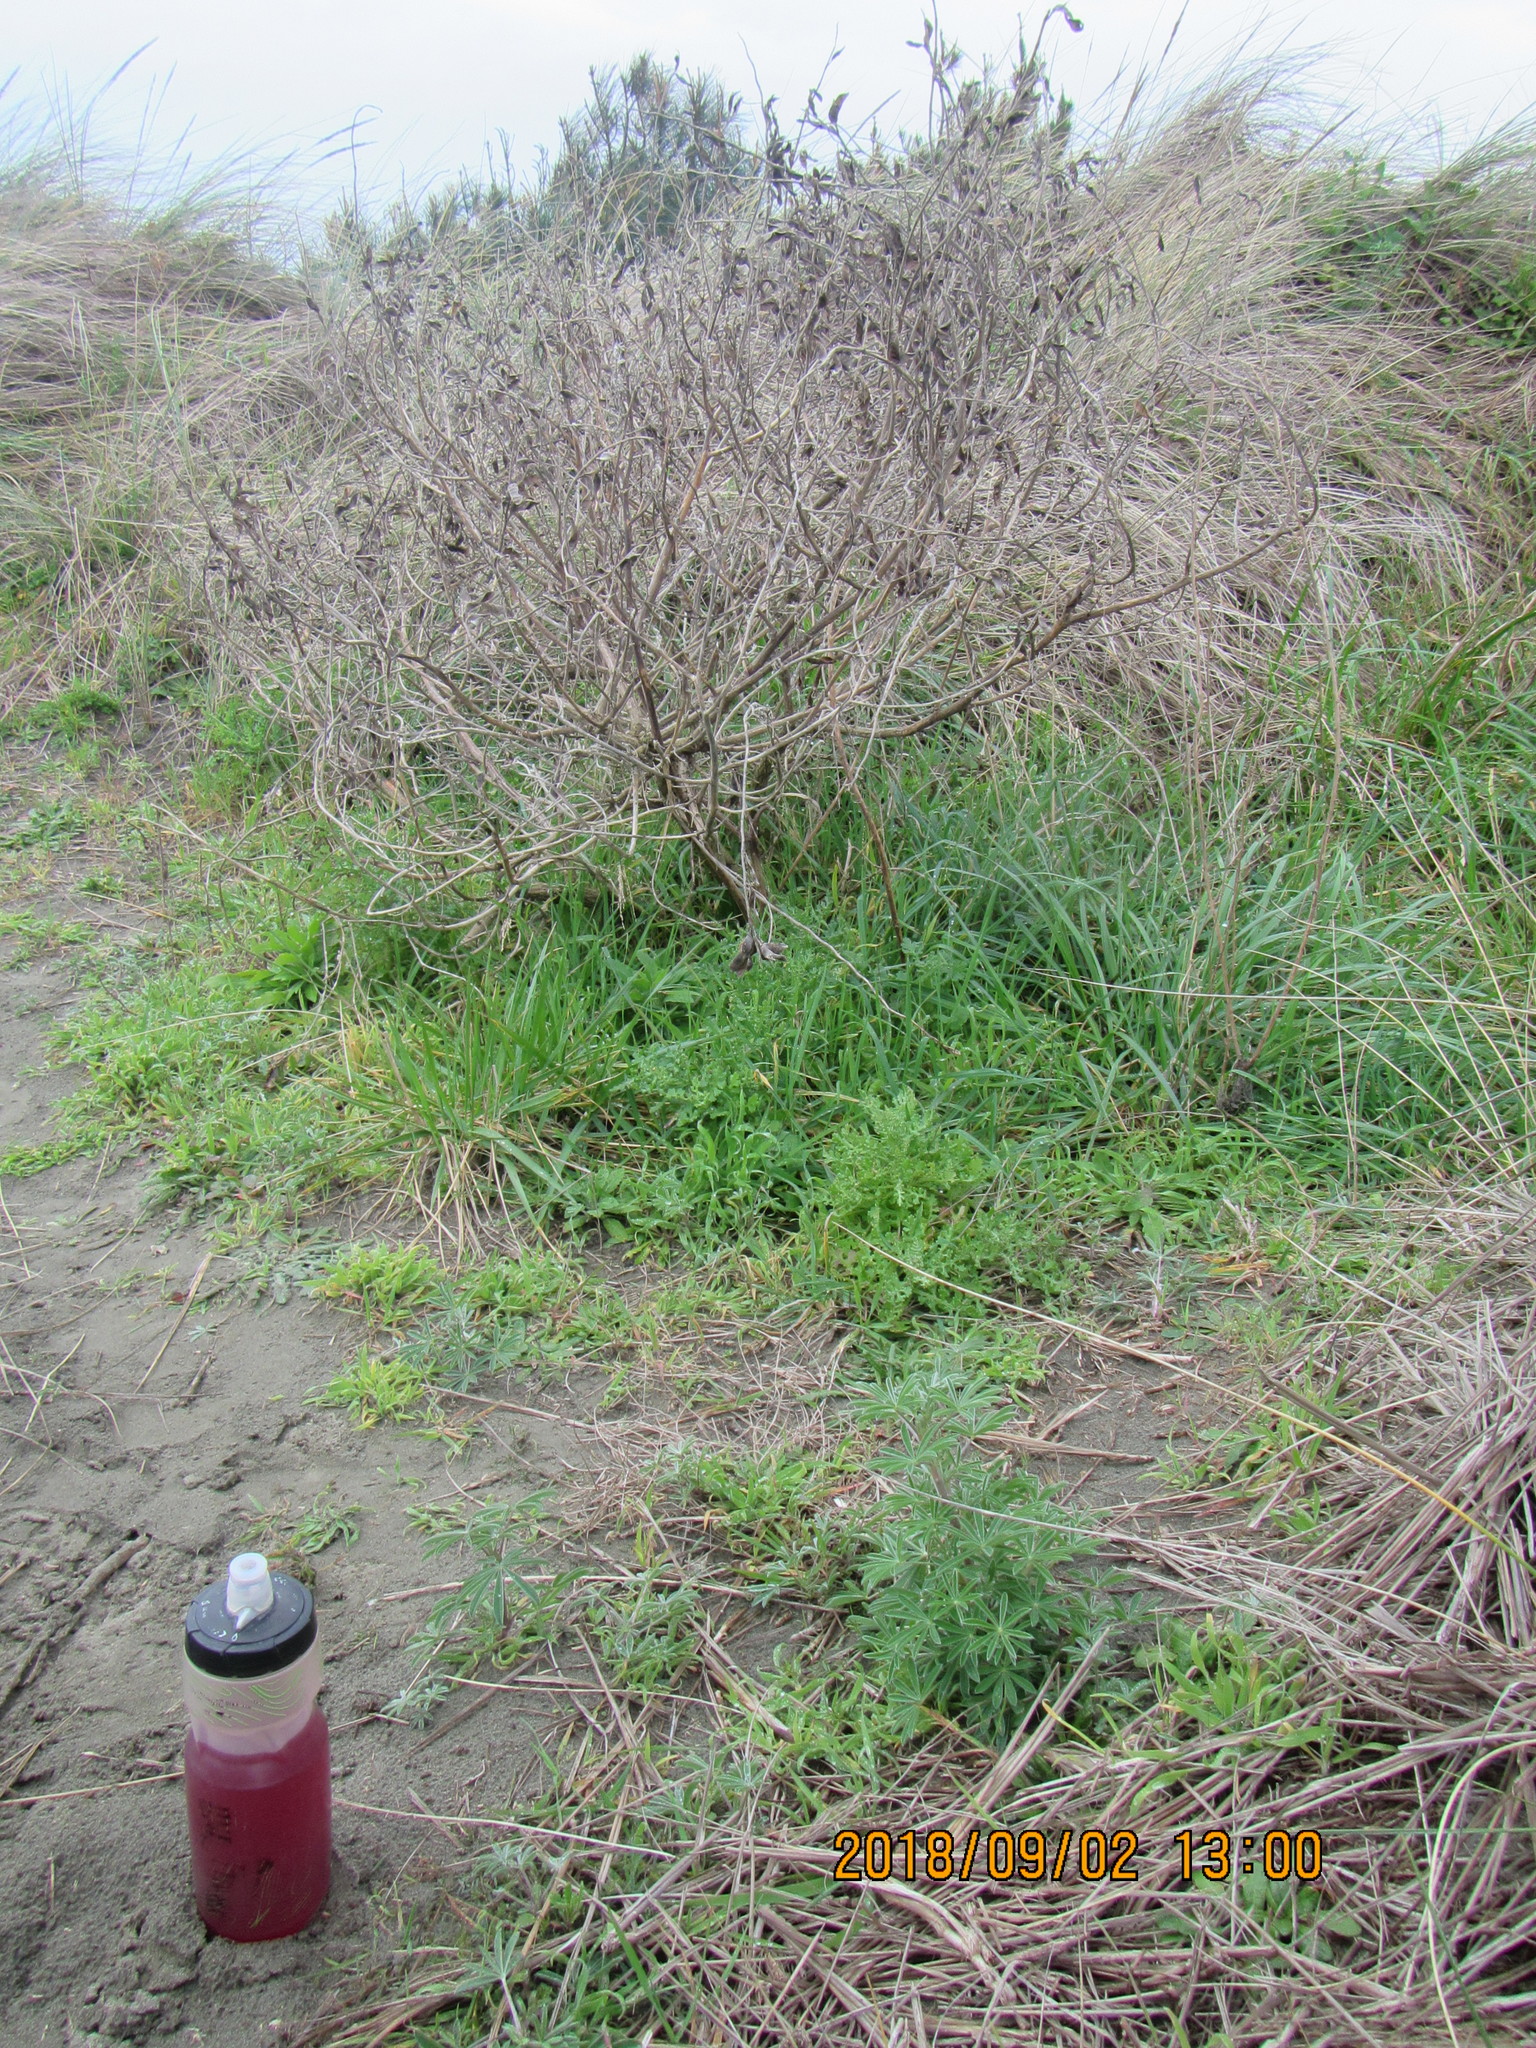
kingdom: Plantae
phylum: Tracheophyta
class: Magnoliopsida
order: Fabales
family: Fabaceae
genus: Lupinus
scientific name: Lupinus arboreus
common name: Yellow bush lupine
